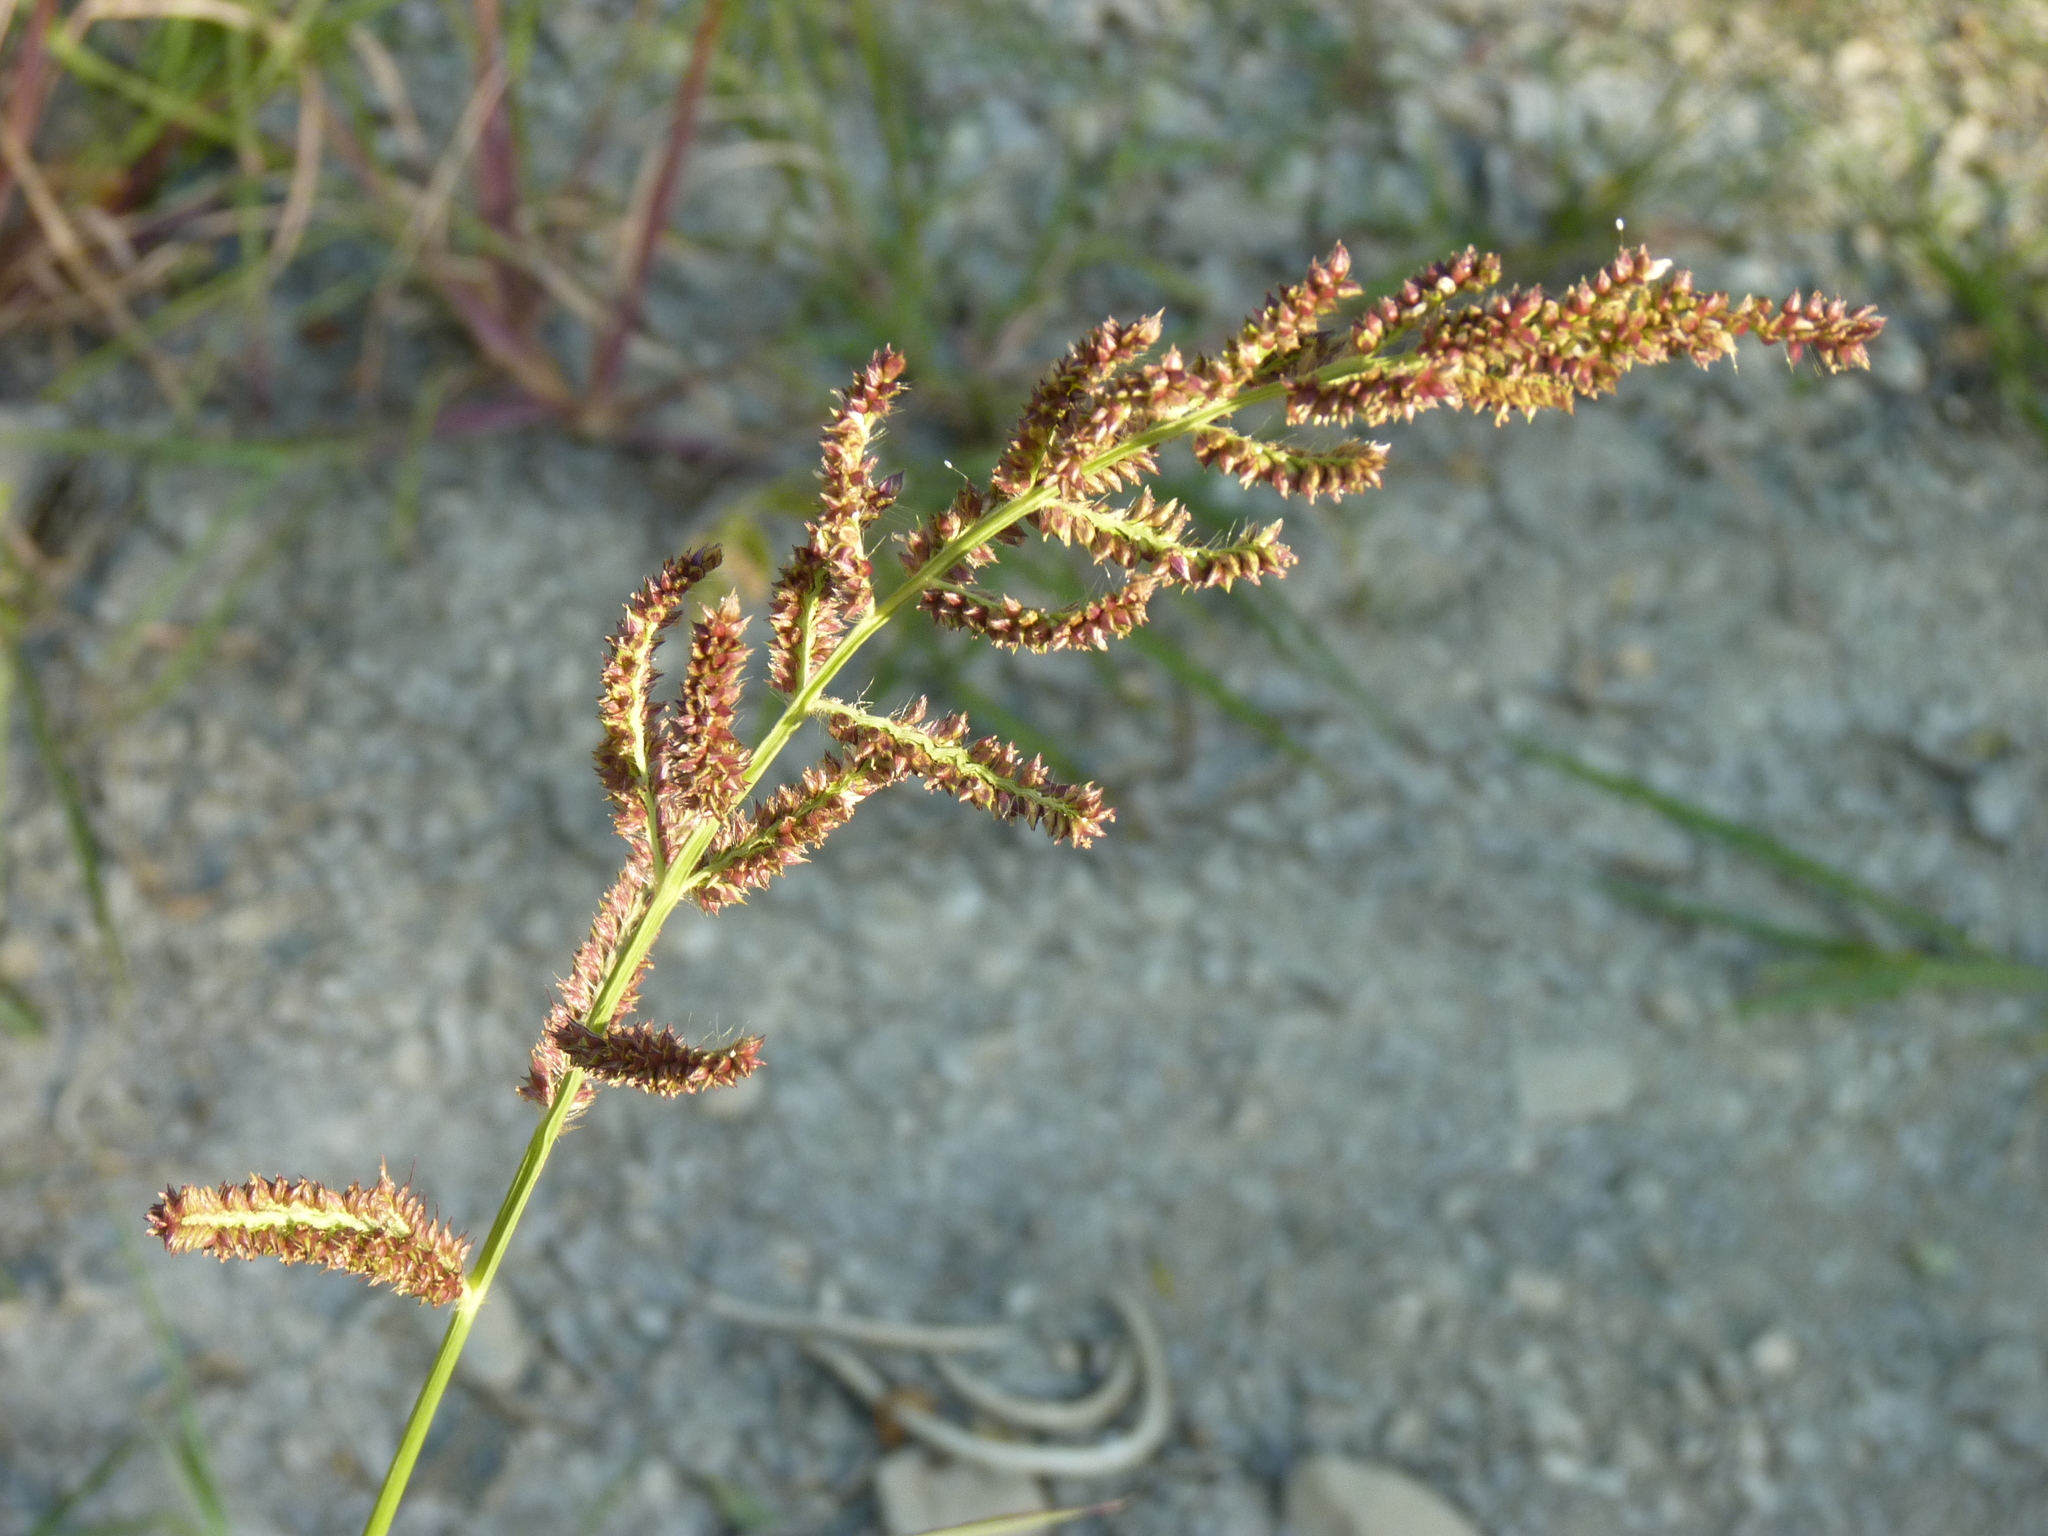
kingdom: Plantae
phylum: Tracheophyta
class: Liliopsida
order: Poales
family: Poaceae
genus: Echinochloa
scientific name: Echinochloa crus-galli
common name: Cockspur
